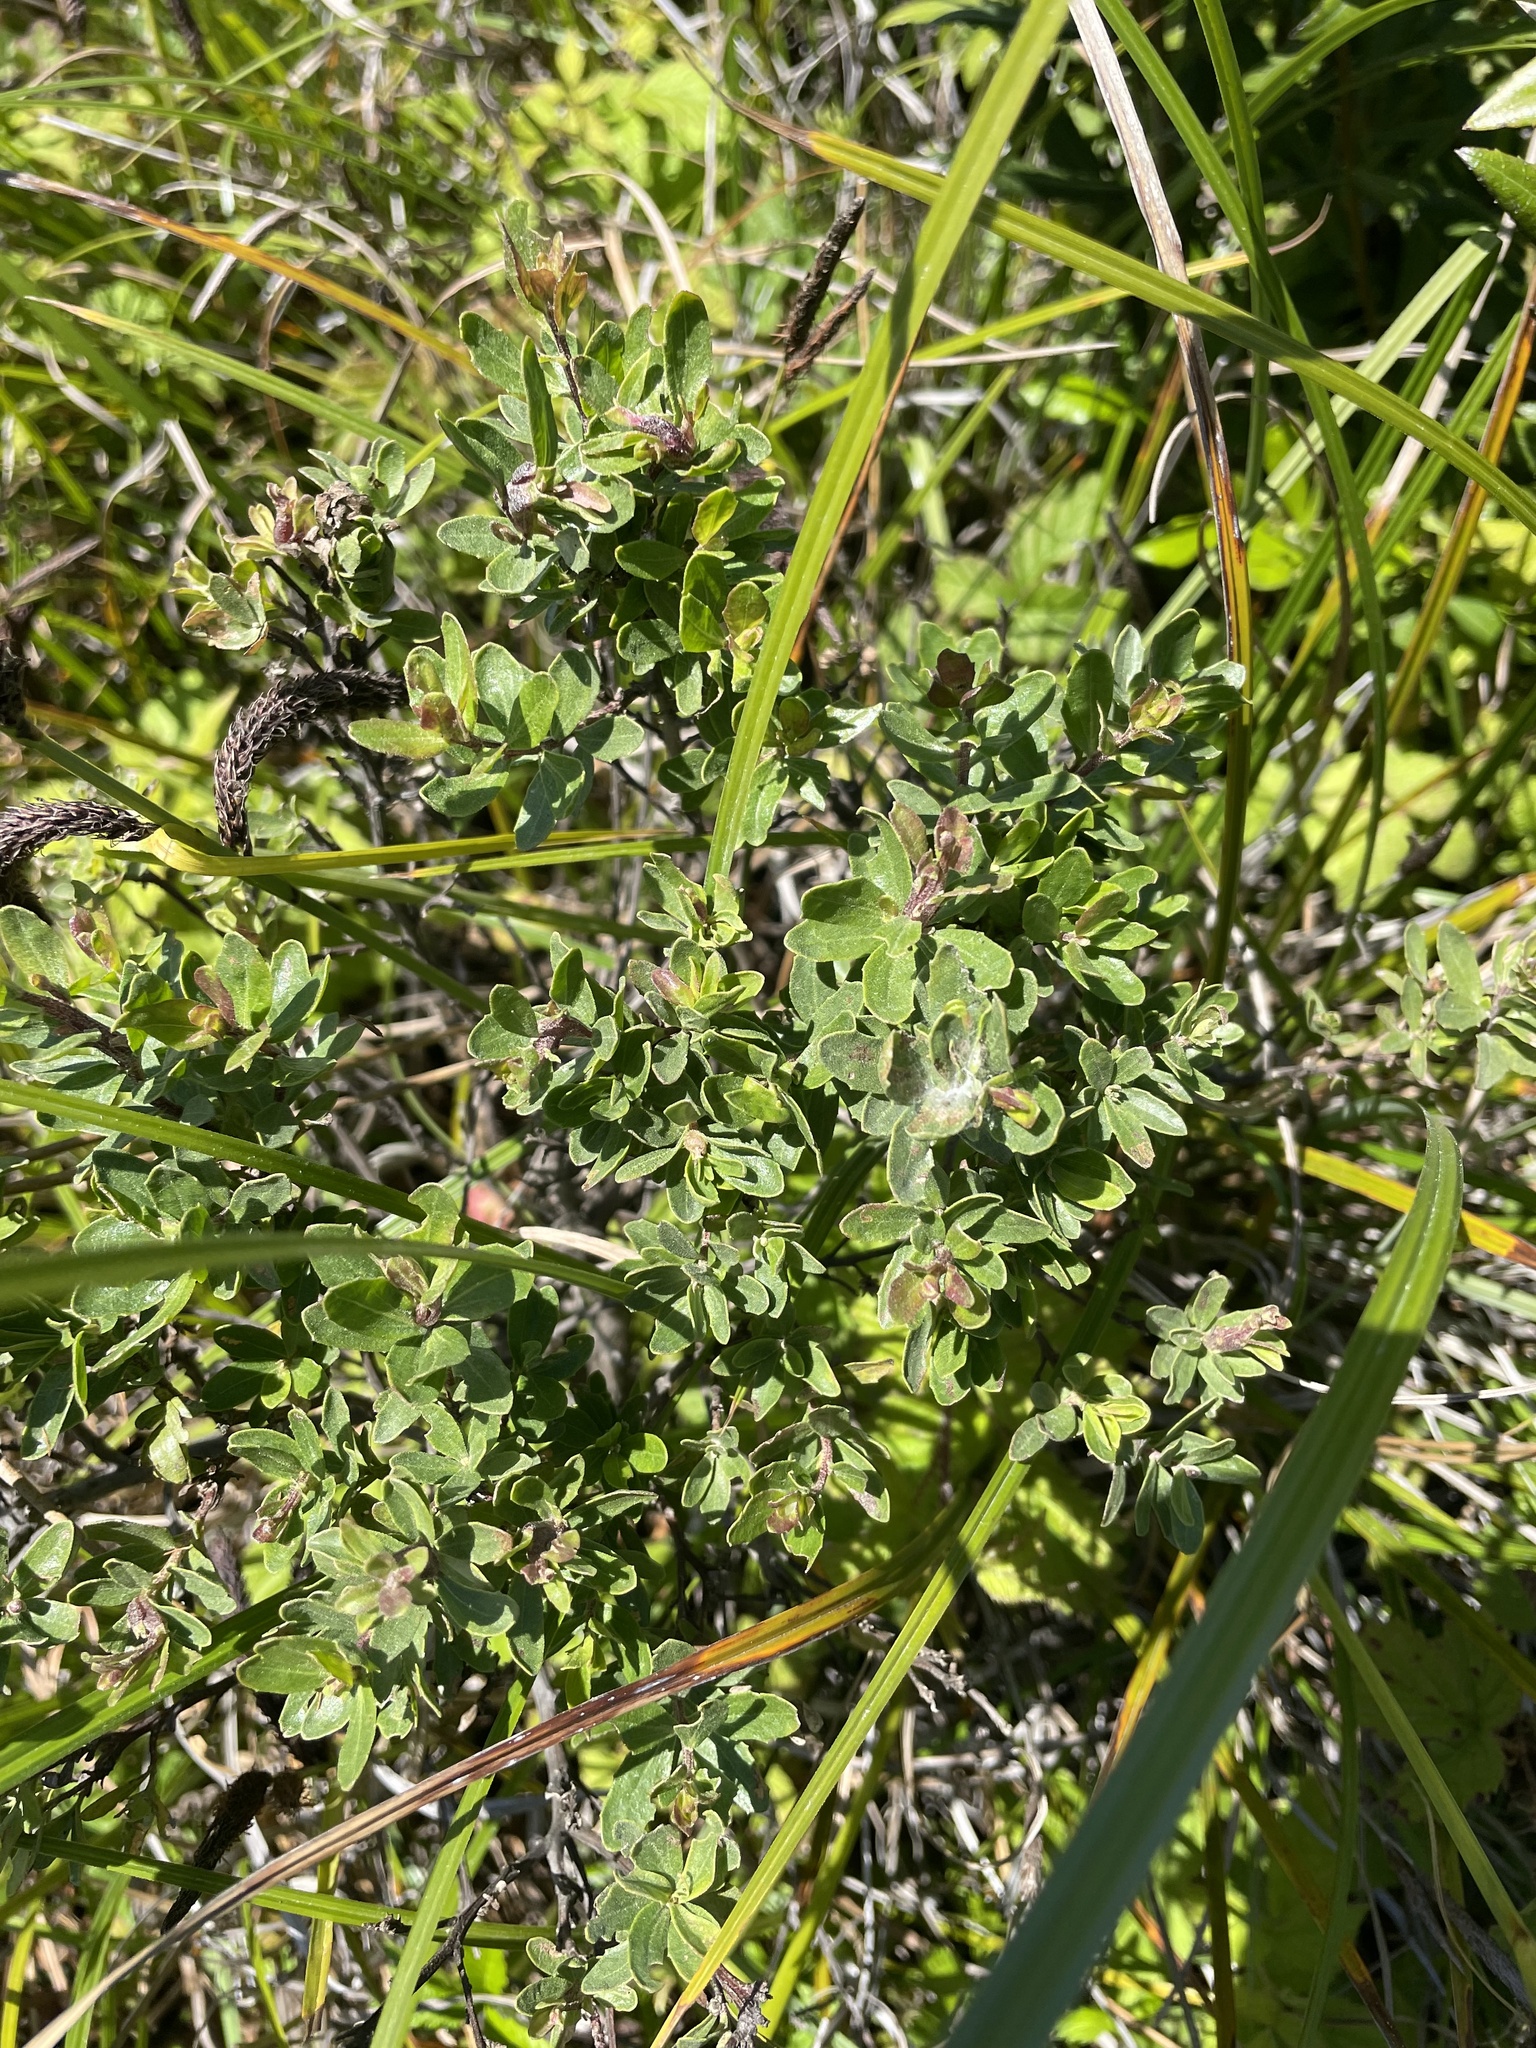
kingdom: Plantae
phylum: Tracheophyta
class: Magnoliopsida
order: Asterales
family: Asteraceae
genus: Baccharis
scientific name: Baccharis pilularis
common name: Coyotebrush
